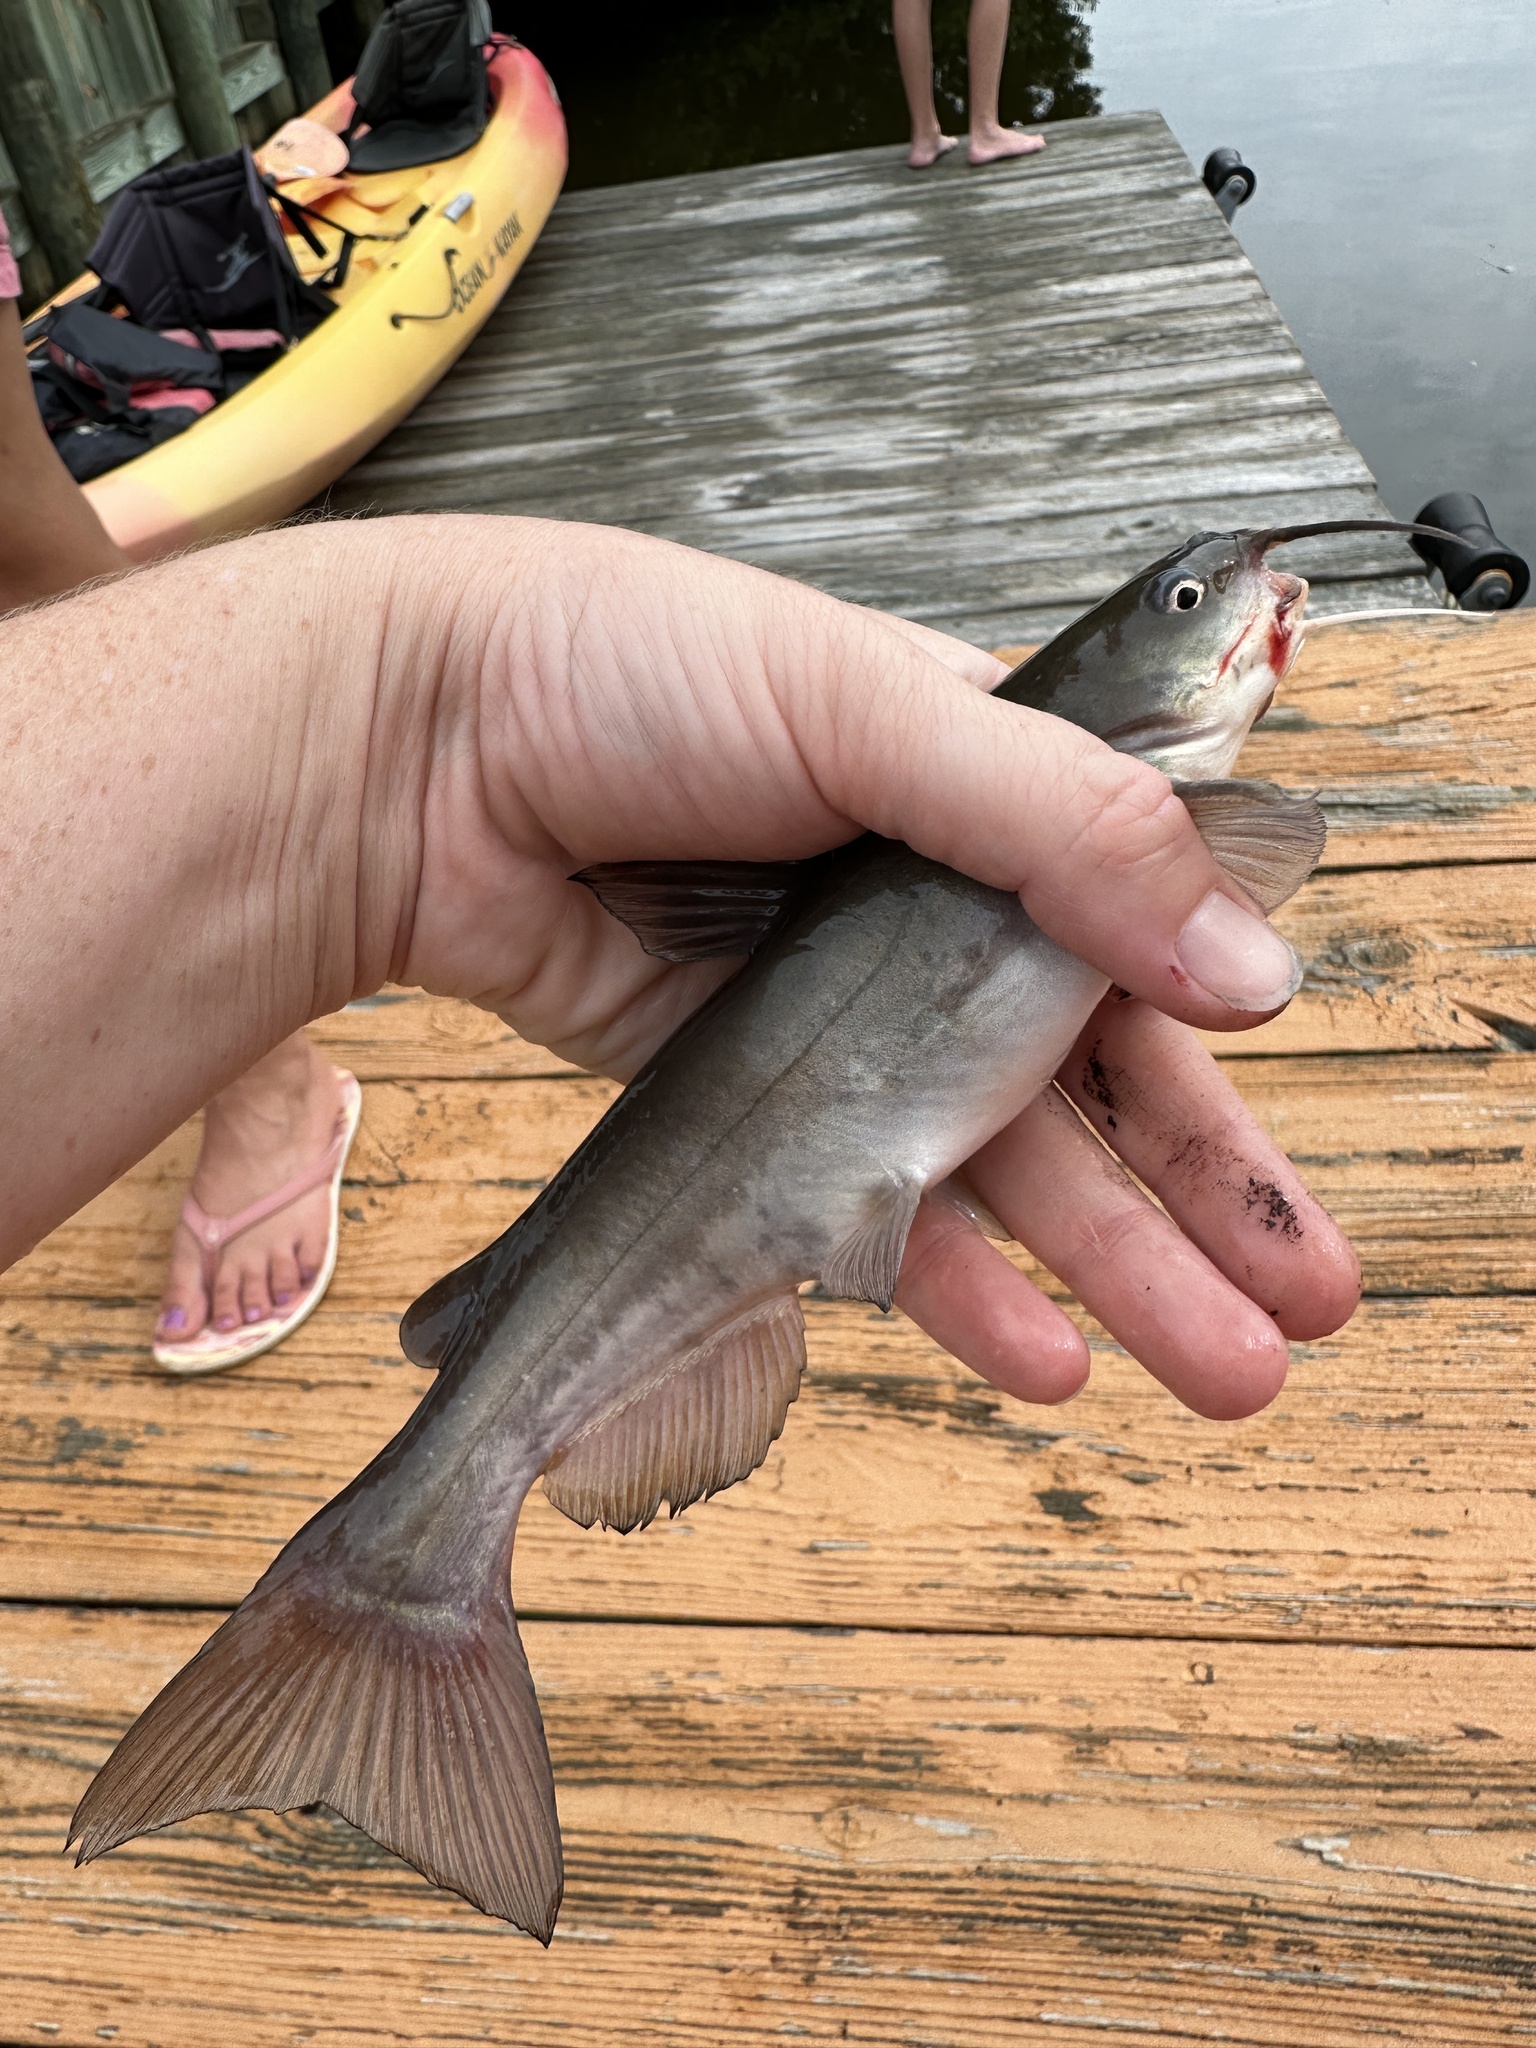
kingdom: Animalia
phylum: Chordata
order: Siluriformes
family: Ictaluridae
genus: Ameiurus
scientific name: Ameiurus catus
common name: White catfish
